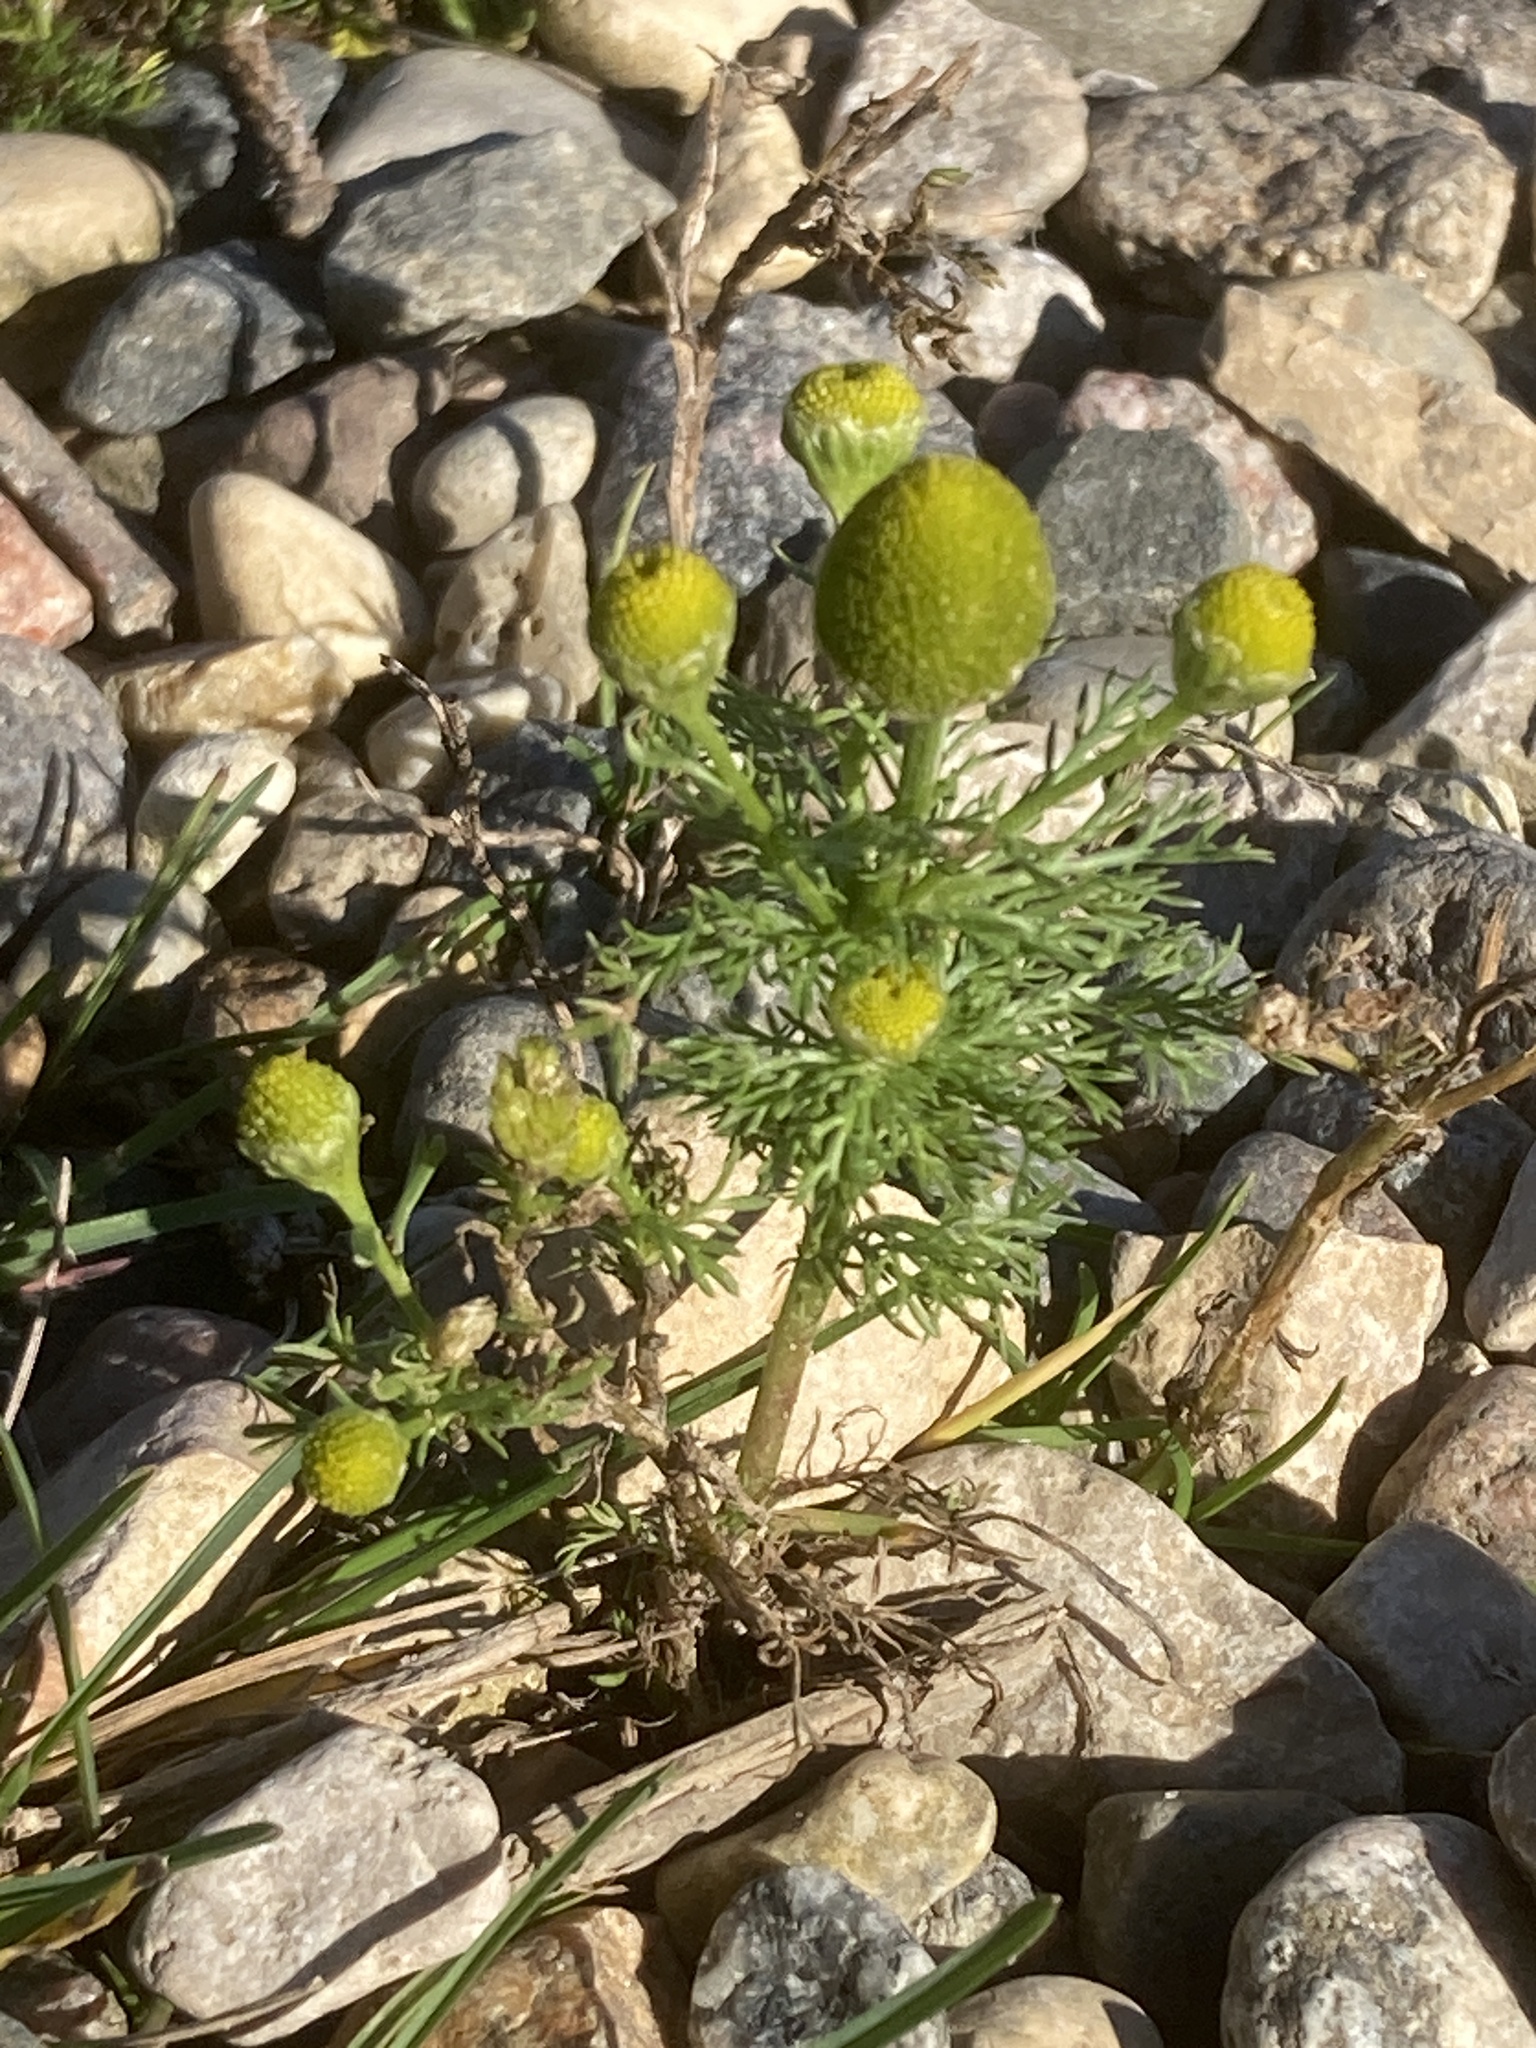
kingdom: Plantae
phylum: Tracheophyta
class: Magnoliopsida
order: Asterales
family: Asteraceae
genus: Matricaria
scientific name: Matricaria discoidea
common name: Disc mayweed
